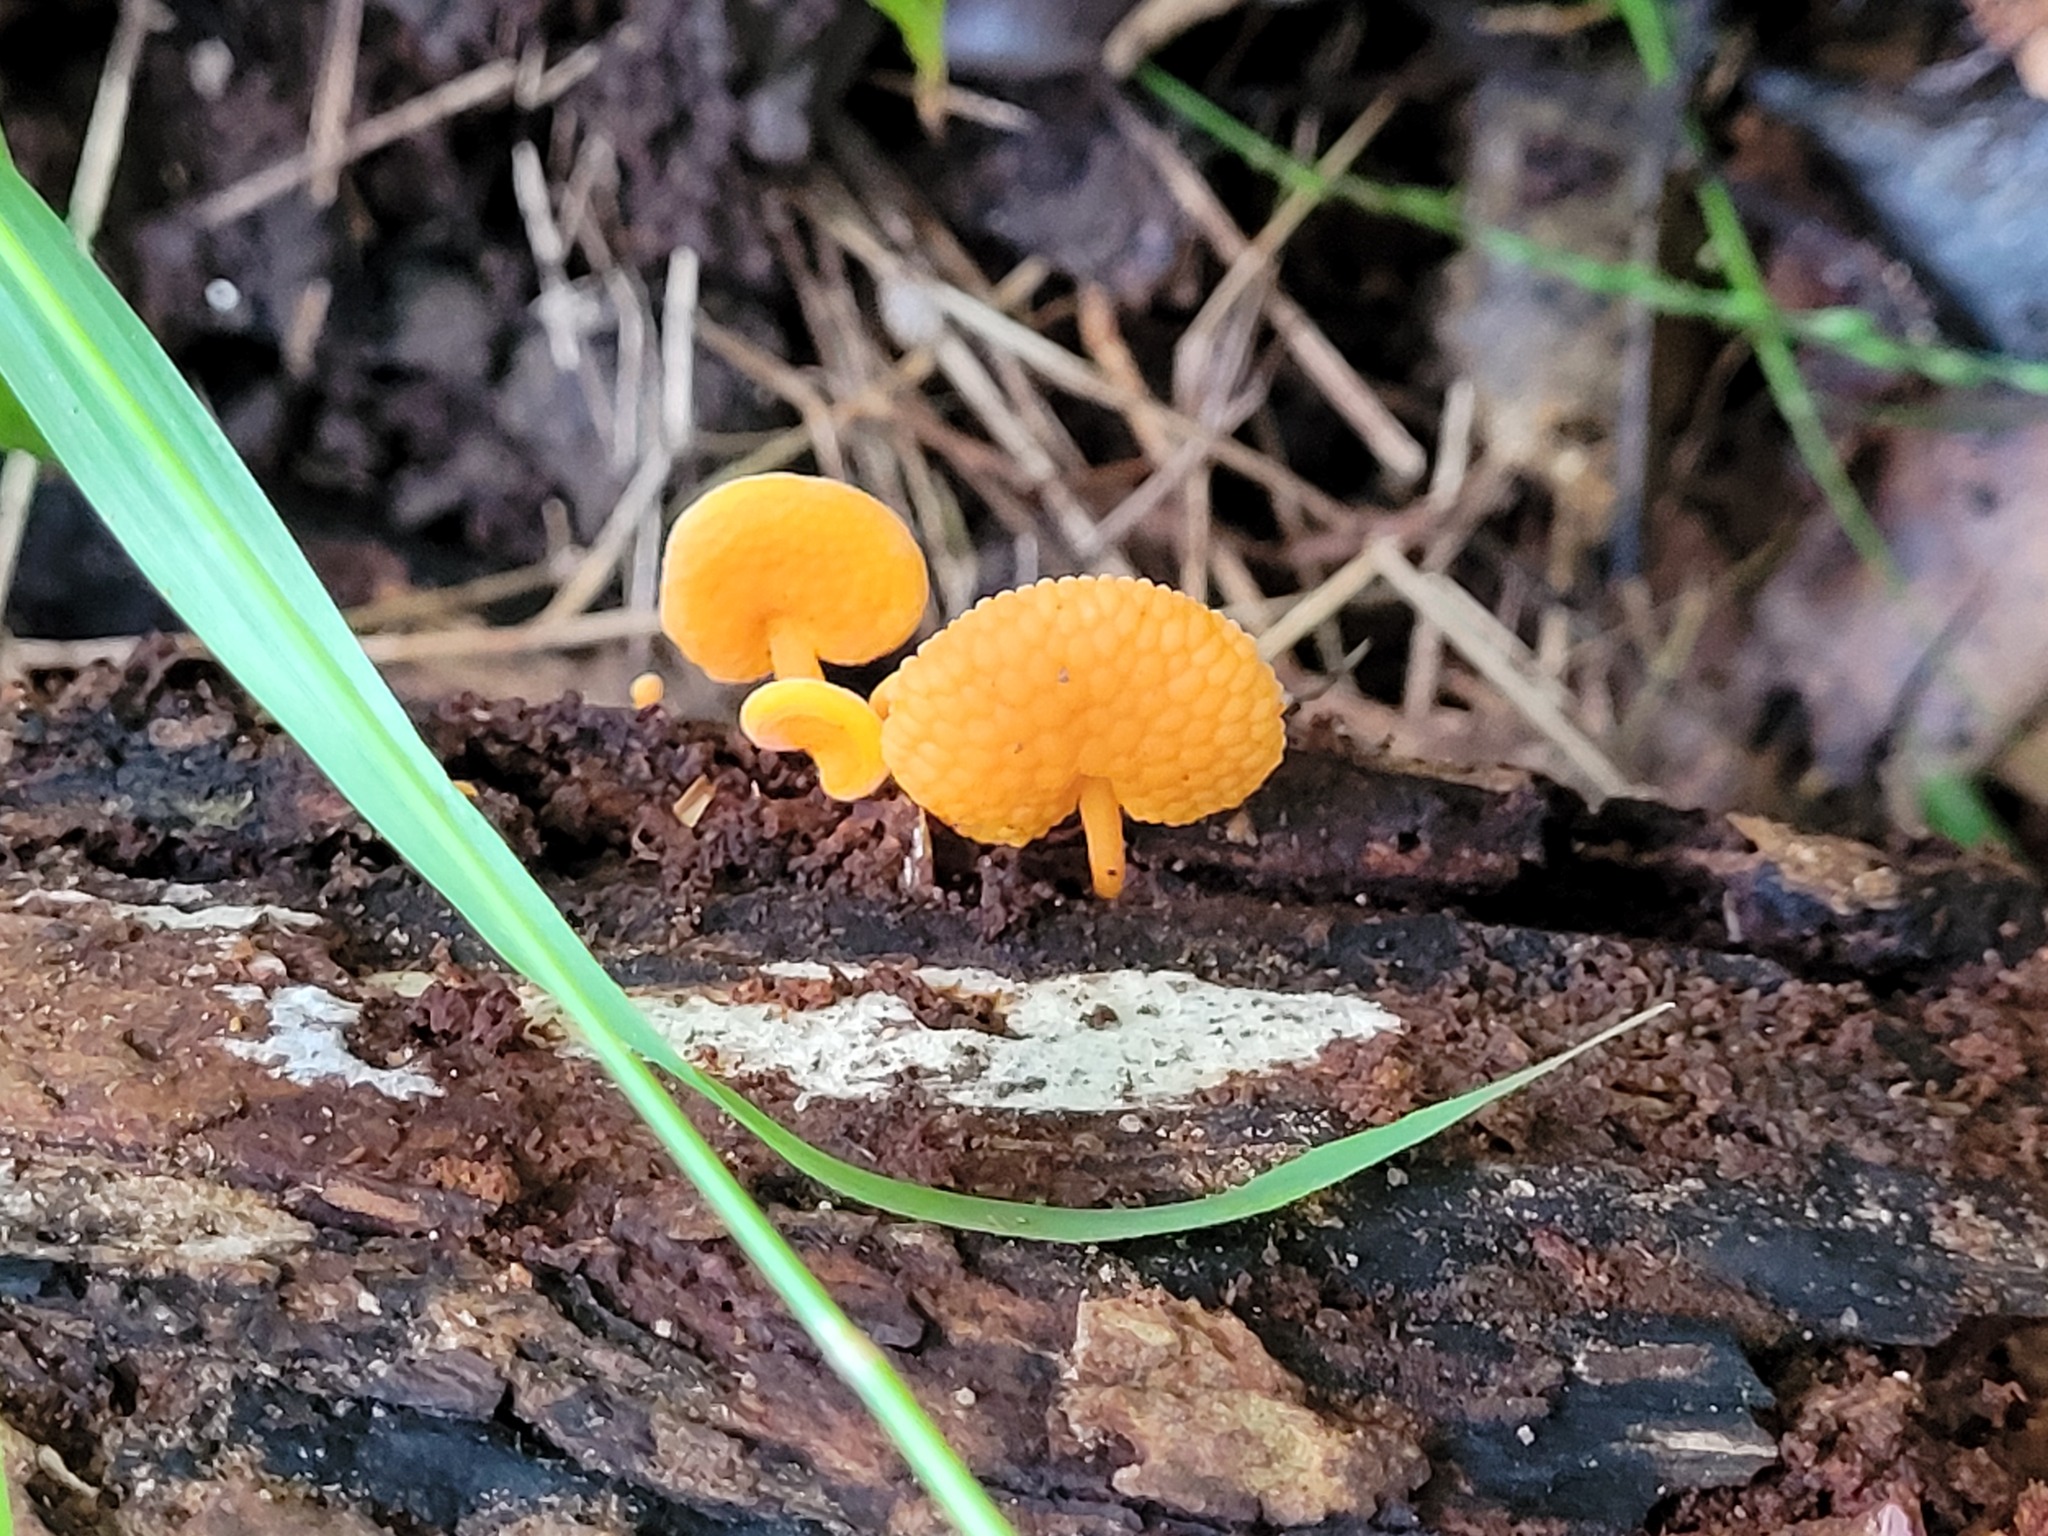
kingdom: Fungi
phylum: Basidiomycota
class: Agaricomycetes
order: Agaricales
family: Mycenaceae
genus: Favolaschia
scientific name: Favolaschia claudopus
